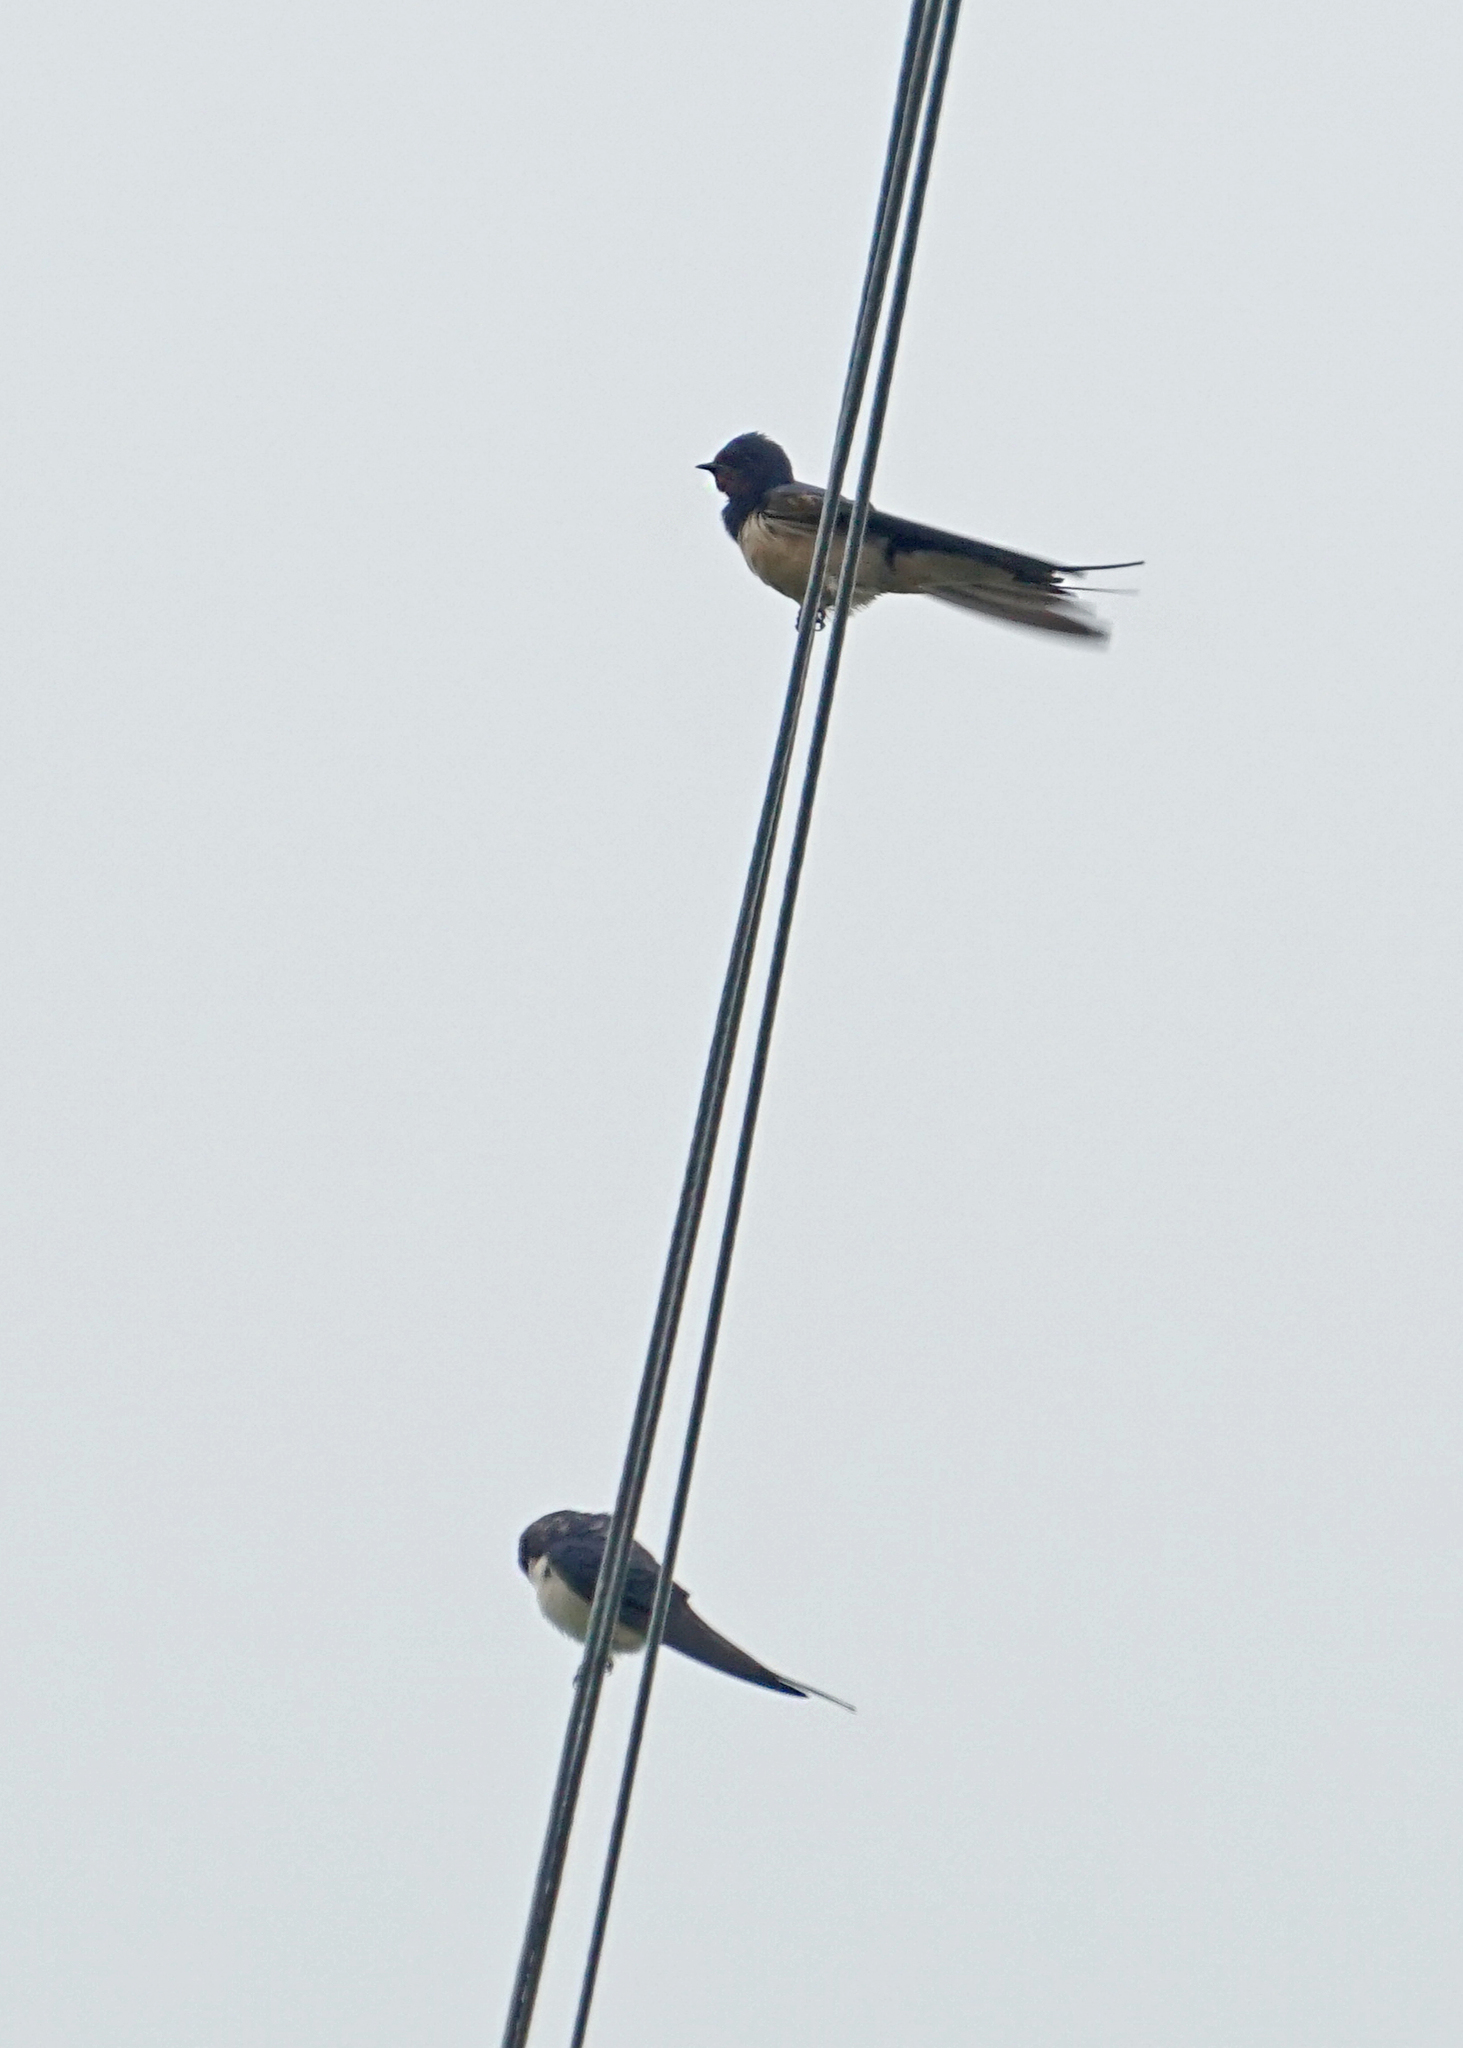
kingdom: Animalia
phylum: Chordata
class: Aves
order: Passeriformes
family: Hirundinidae
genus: Hirundo
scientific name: Hirundo rustica
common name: Barn swallow
